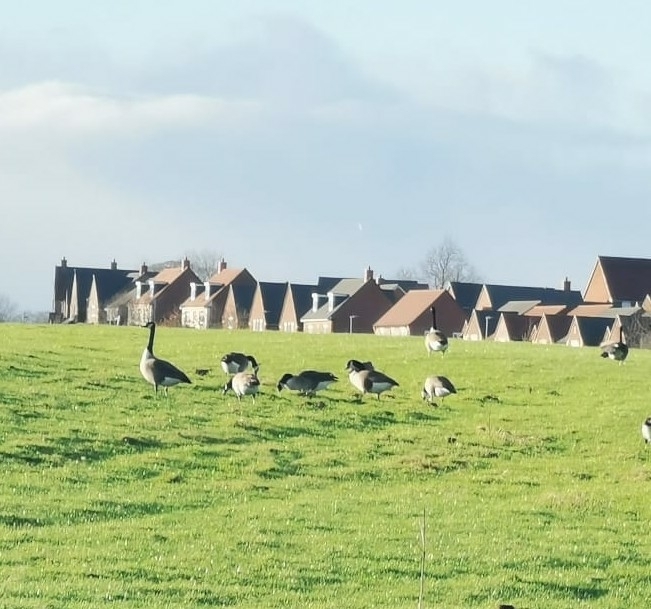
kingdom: Animalia
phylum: Chordata
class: Aves
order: Anseriformes
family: Anatidae
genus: Branta
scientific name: Branta canadensis
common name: Canada goose
